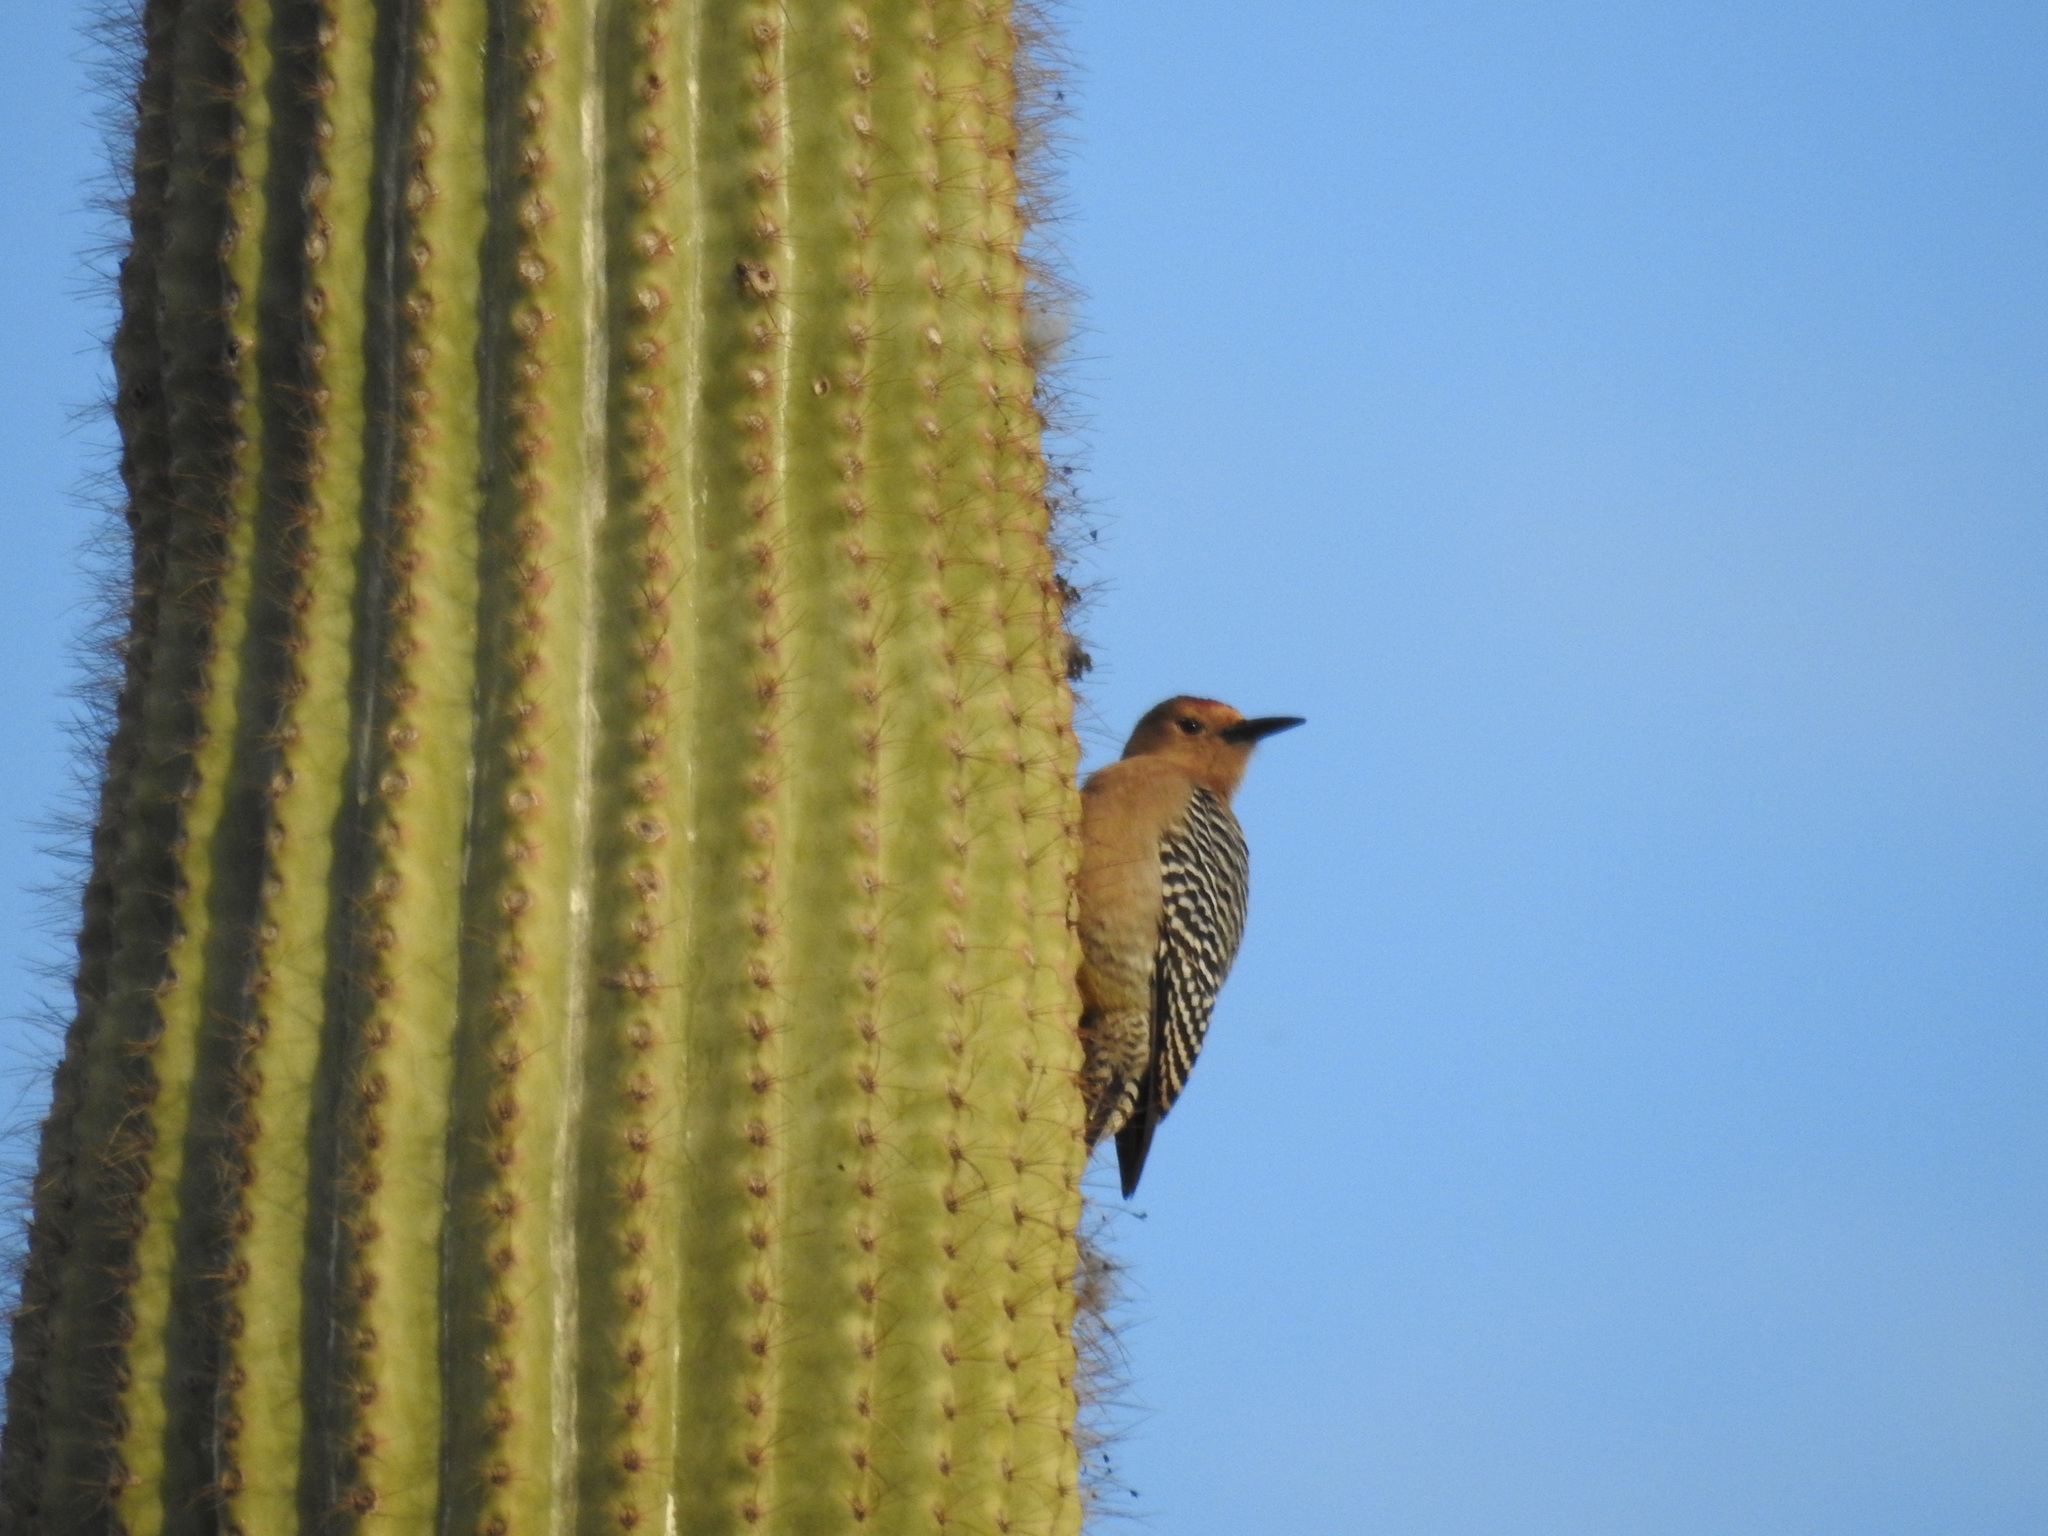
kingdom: Animalia
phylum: Chordata
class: Aves
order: Piciformes
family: Picidae
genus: Melanerpes
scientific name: Melanerpes uropygialis
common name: Gila woodpecker
